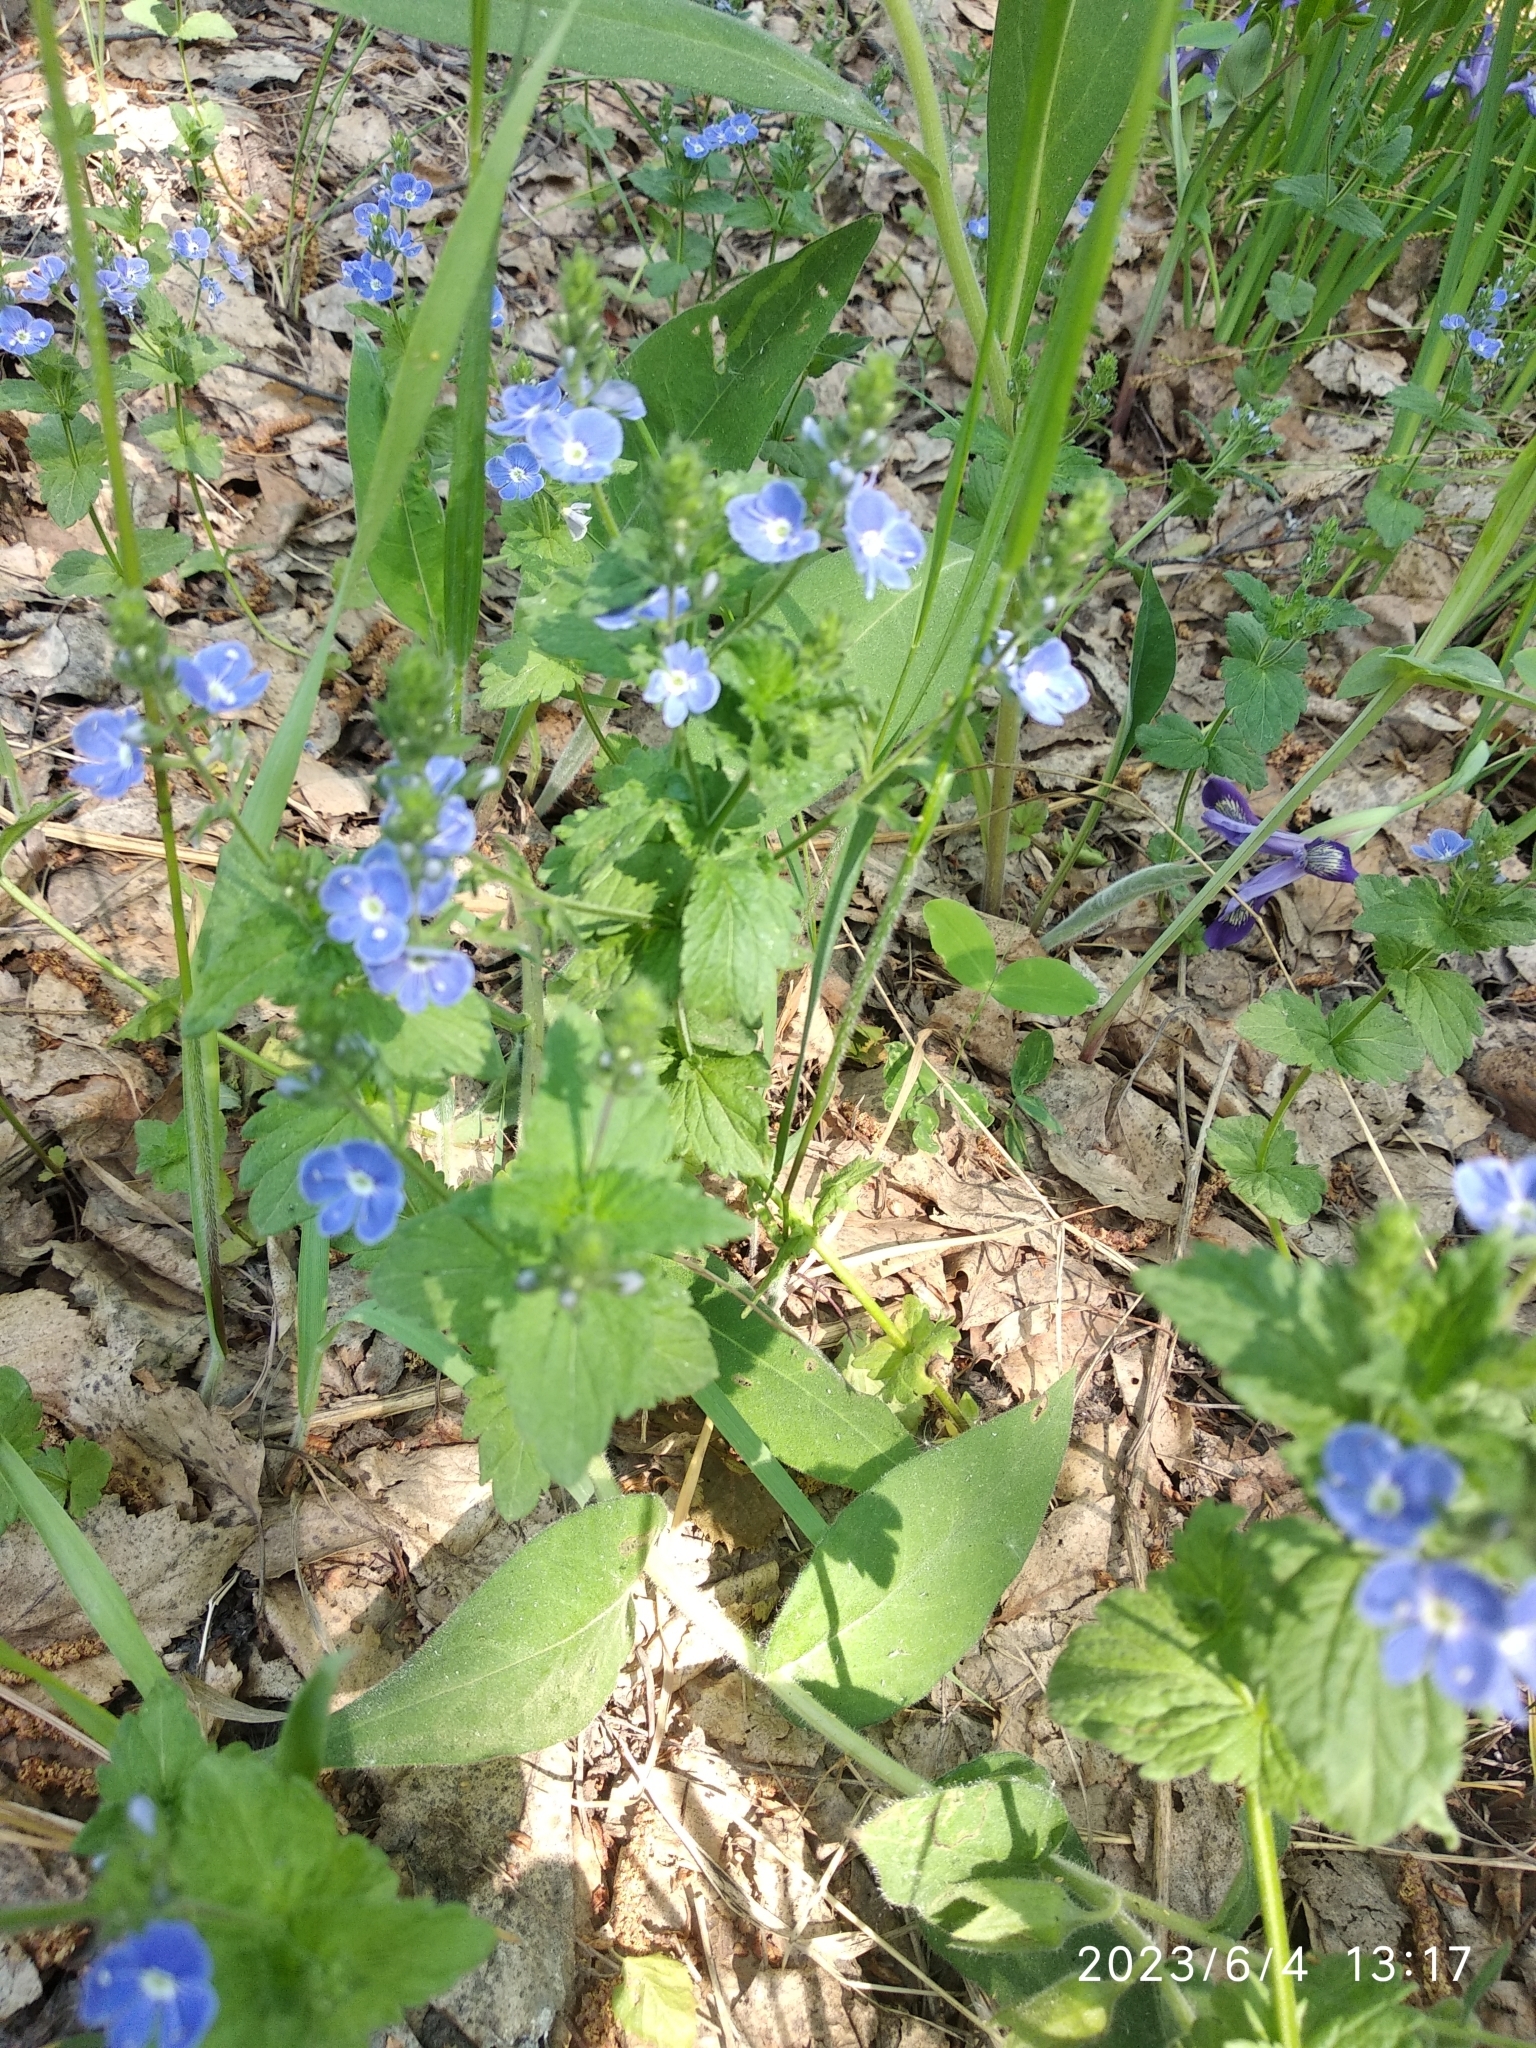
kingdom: Plantae
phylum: Tracheophyta
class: Magnoliopsida
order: Lamiales
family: Plantaginaceae
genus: Veronica
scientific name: Veronica chamaedrys
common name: Germander speedwell
